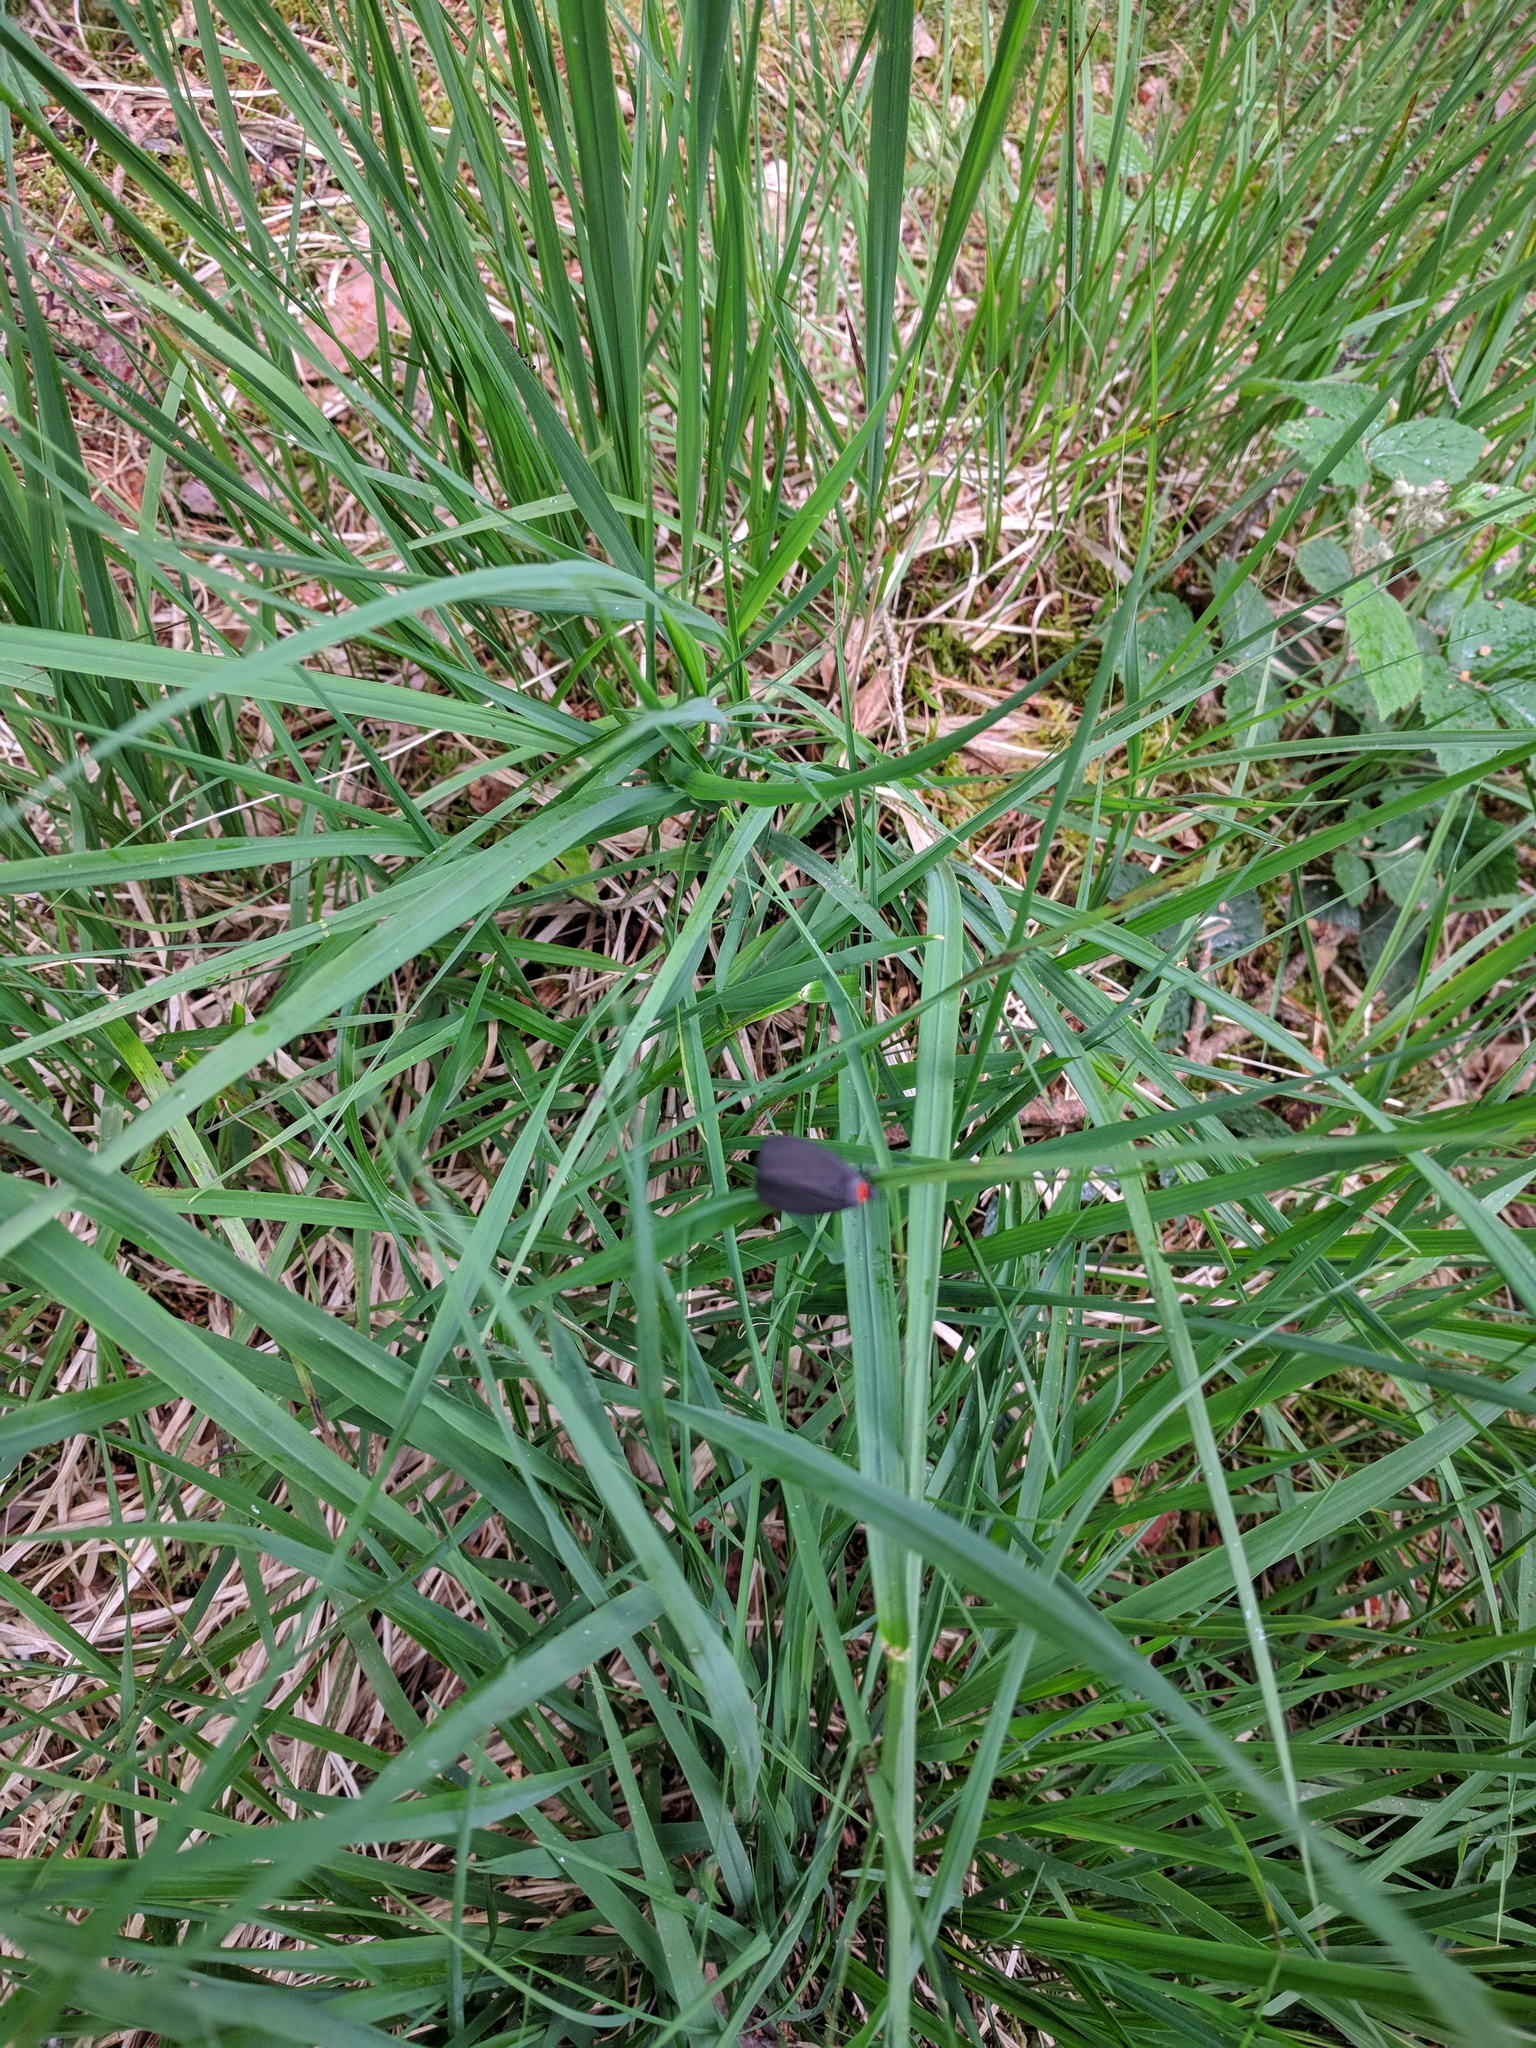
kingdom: Animalia
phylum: Arthropoda
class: Insecta
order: Lepidoptera
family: Erebidae
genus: Atolmis
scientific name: Atolmis rubricollis
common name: Red-necked footman
